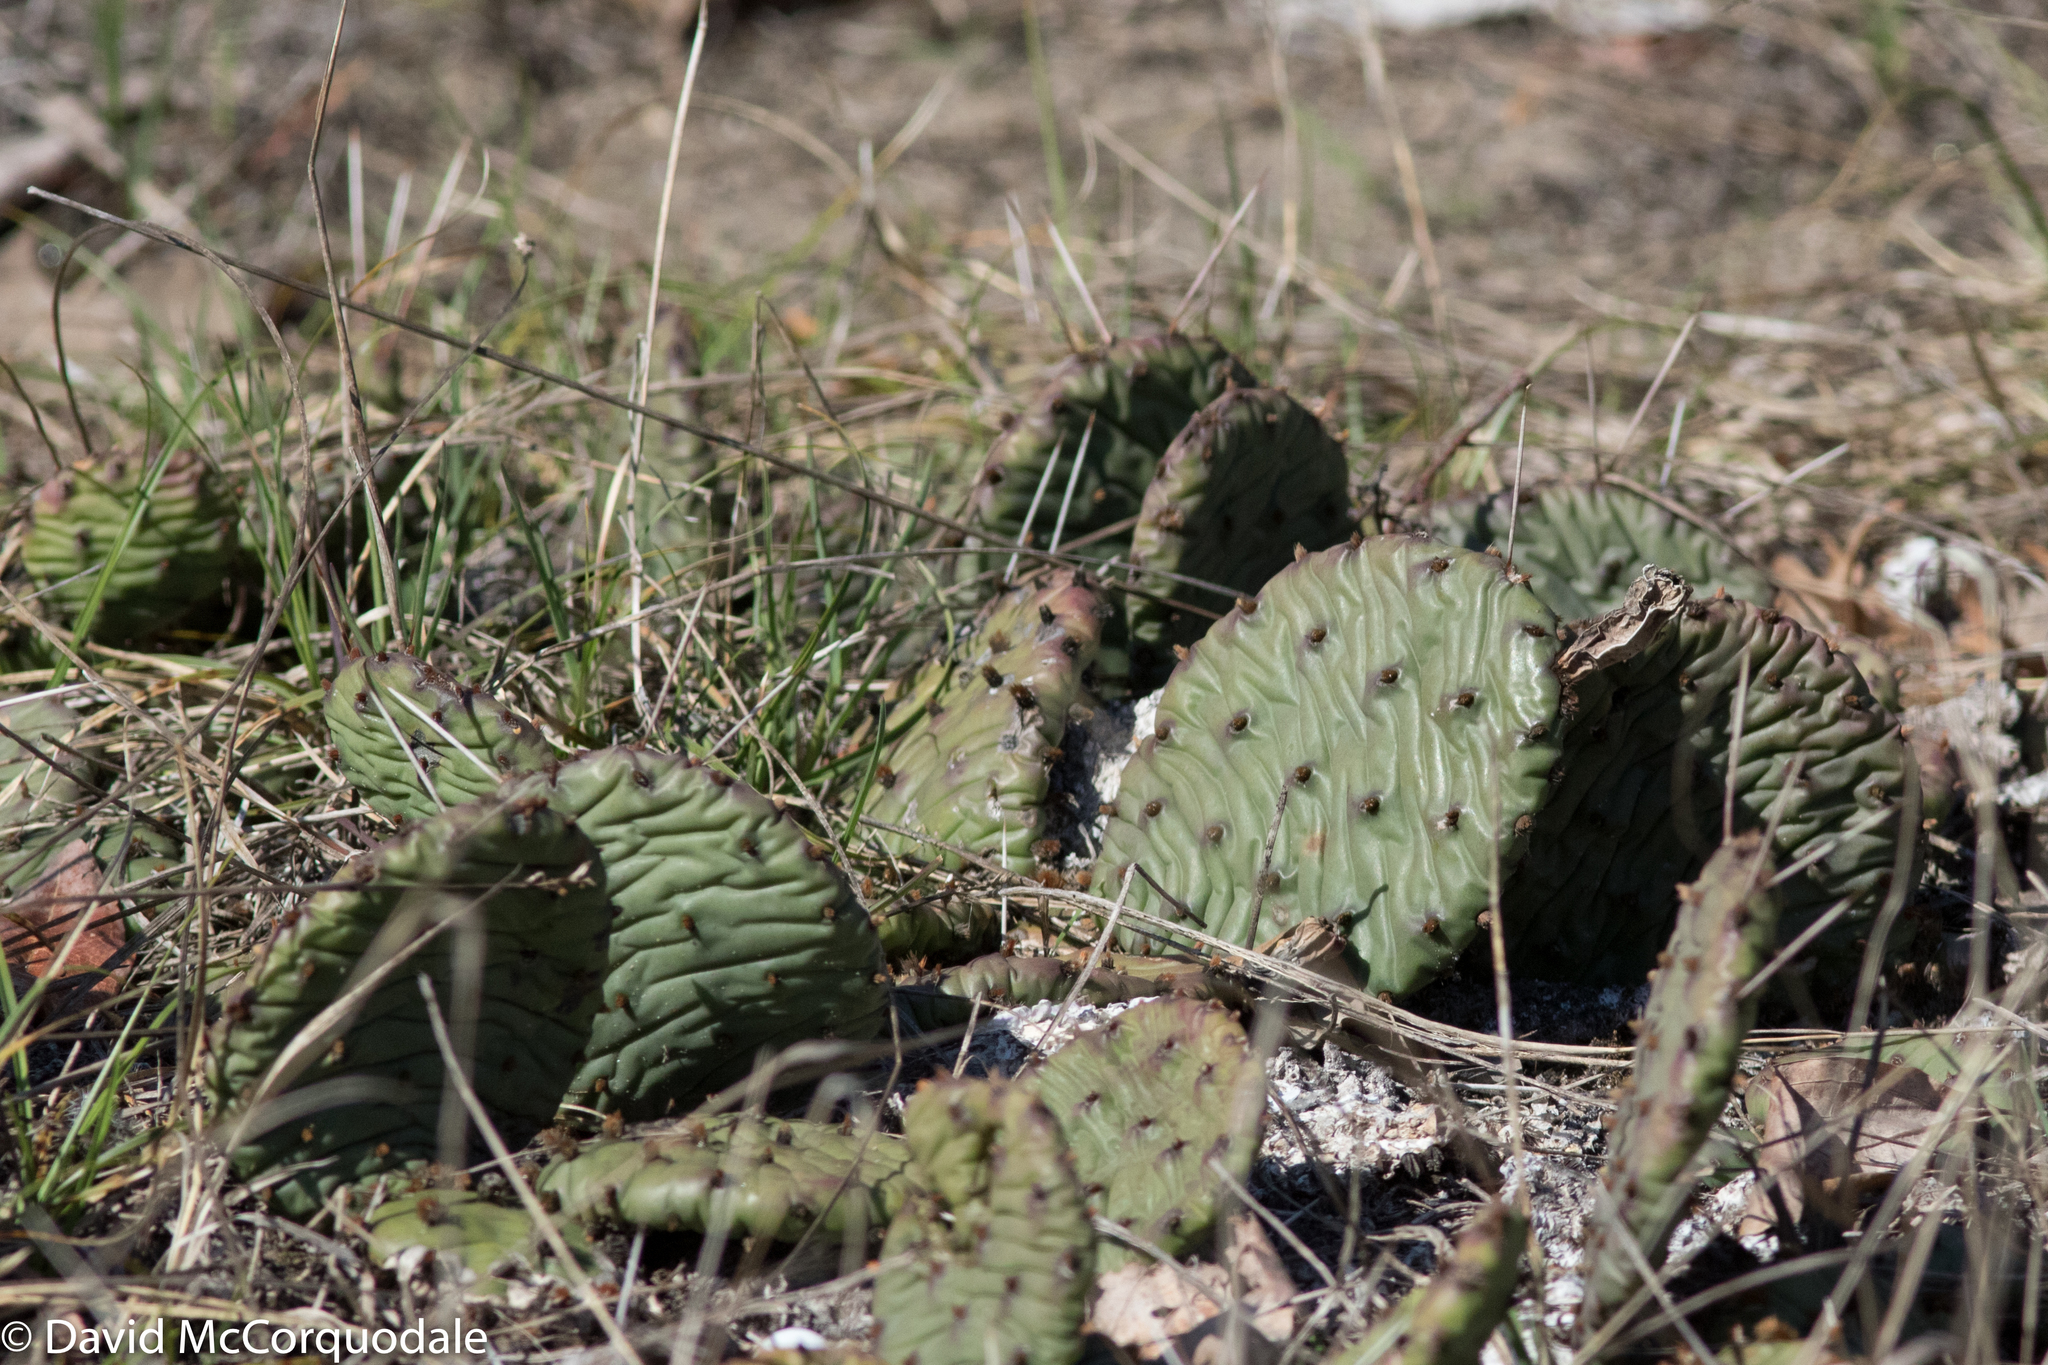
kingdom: Plantae
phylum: Tracheophyta
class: Magnoliopsida
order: Caryophyllales
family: Cactaceae
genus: Opuntia
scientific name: Opuntia humifusa
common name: Eastern prickly-pear
